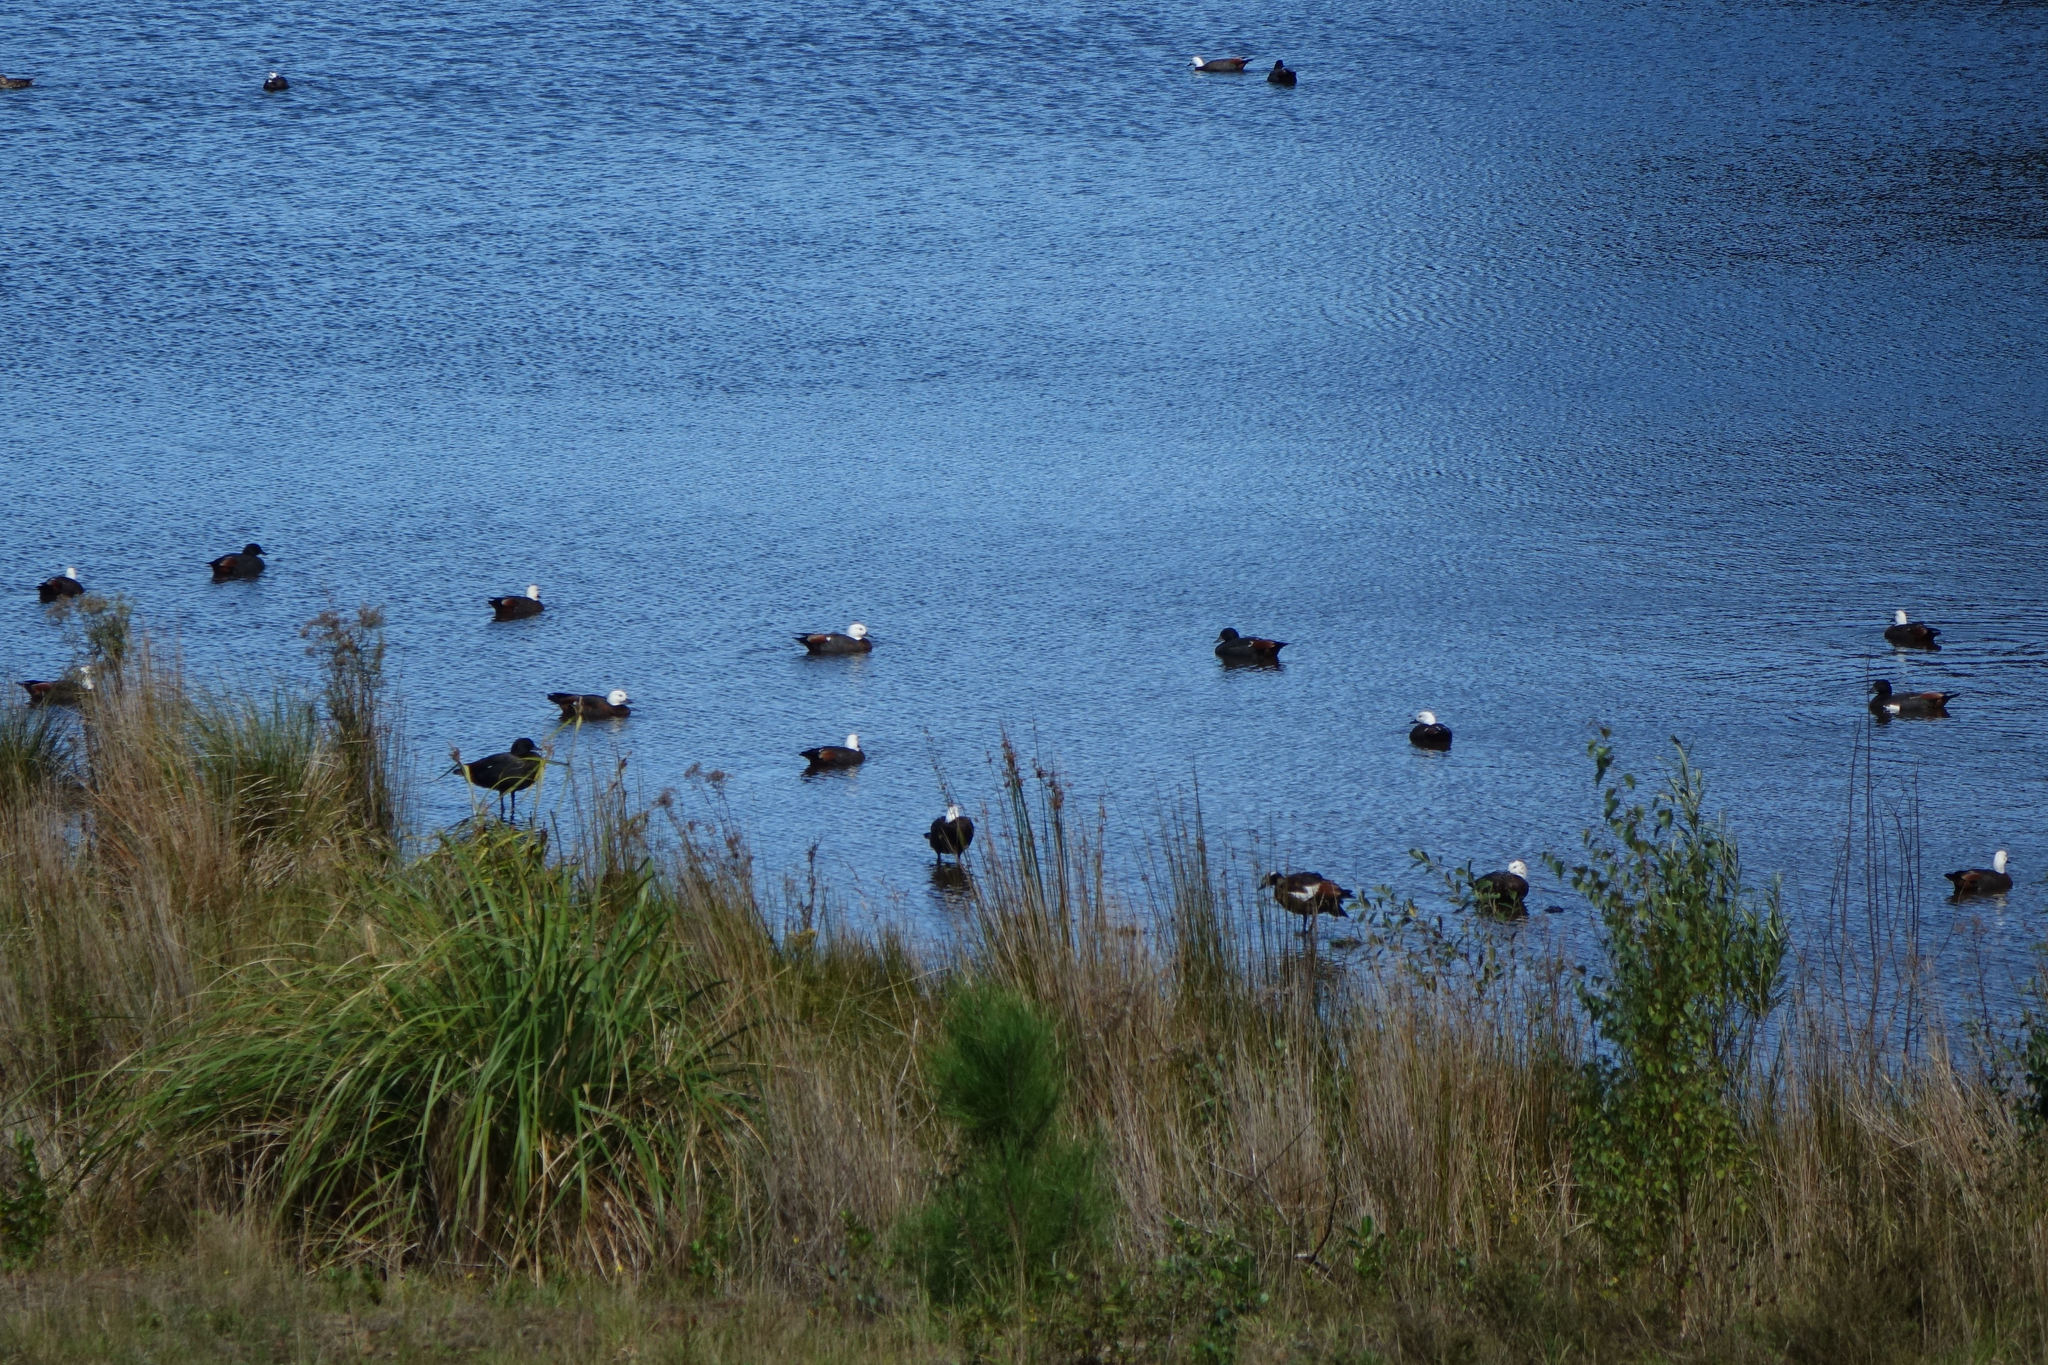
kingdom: Animalia
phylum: Chordata
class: Aves
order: Anseriformes
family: Anatidae
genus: Tadorna
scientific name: Tadorna variegata
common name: Paradise shelduck
